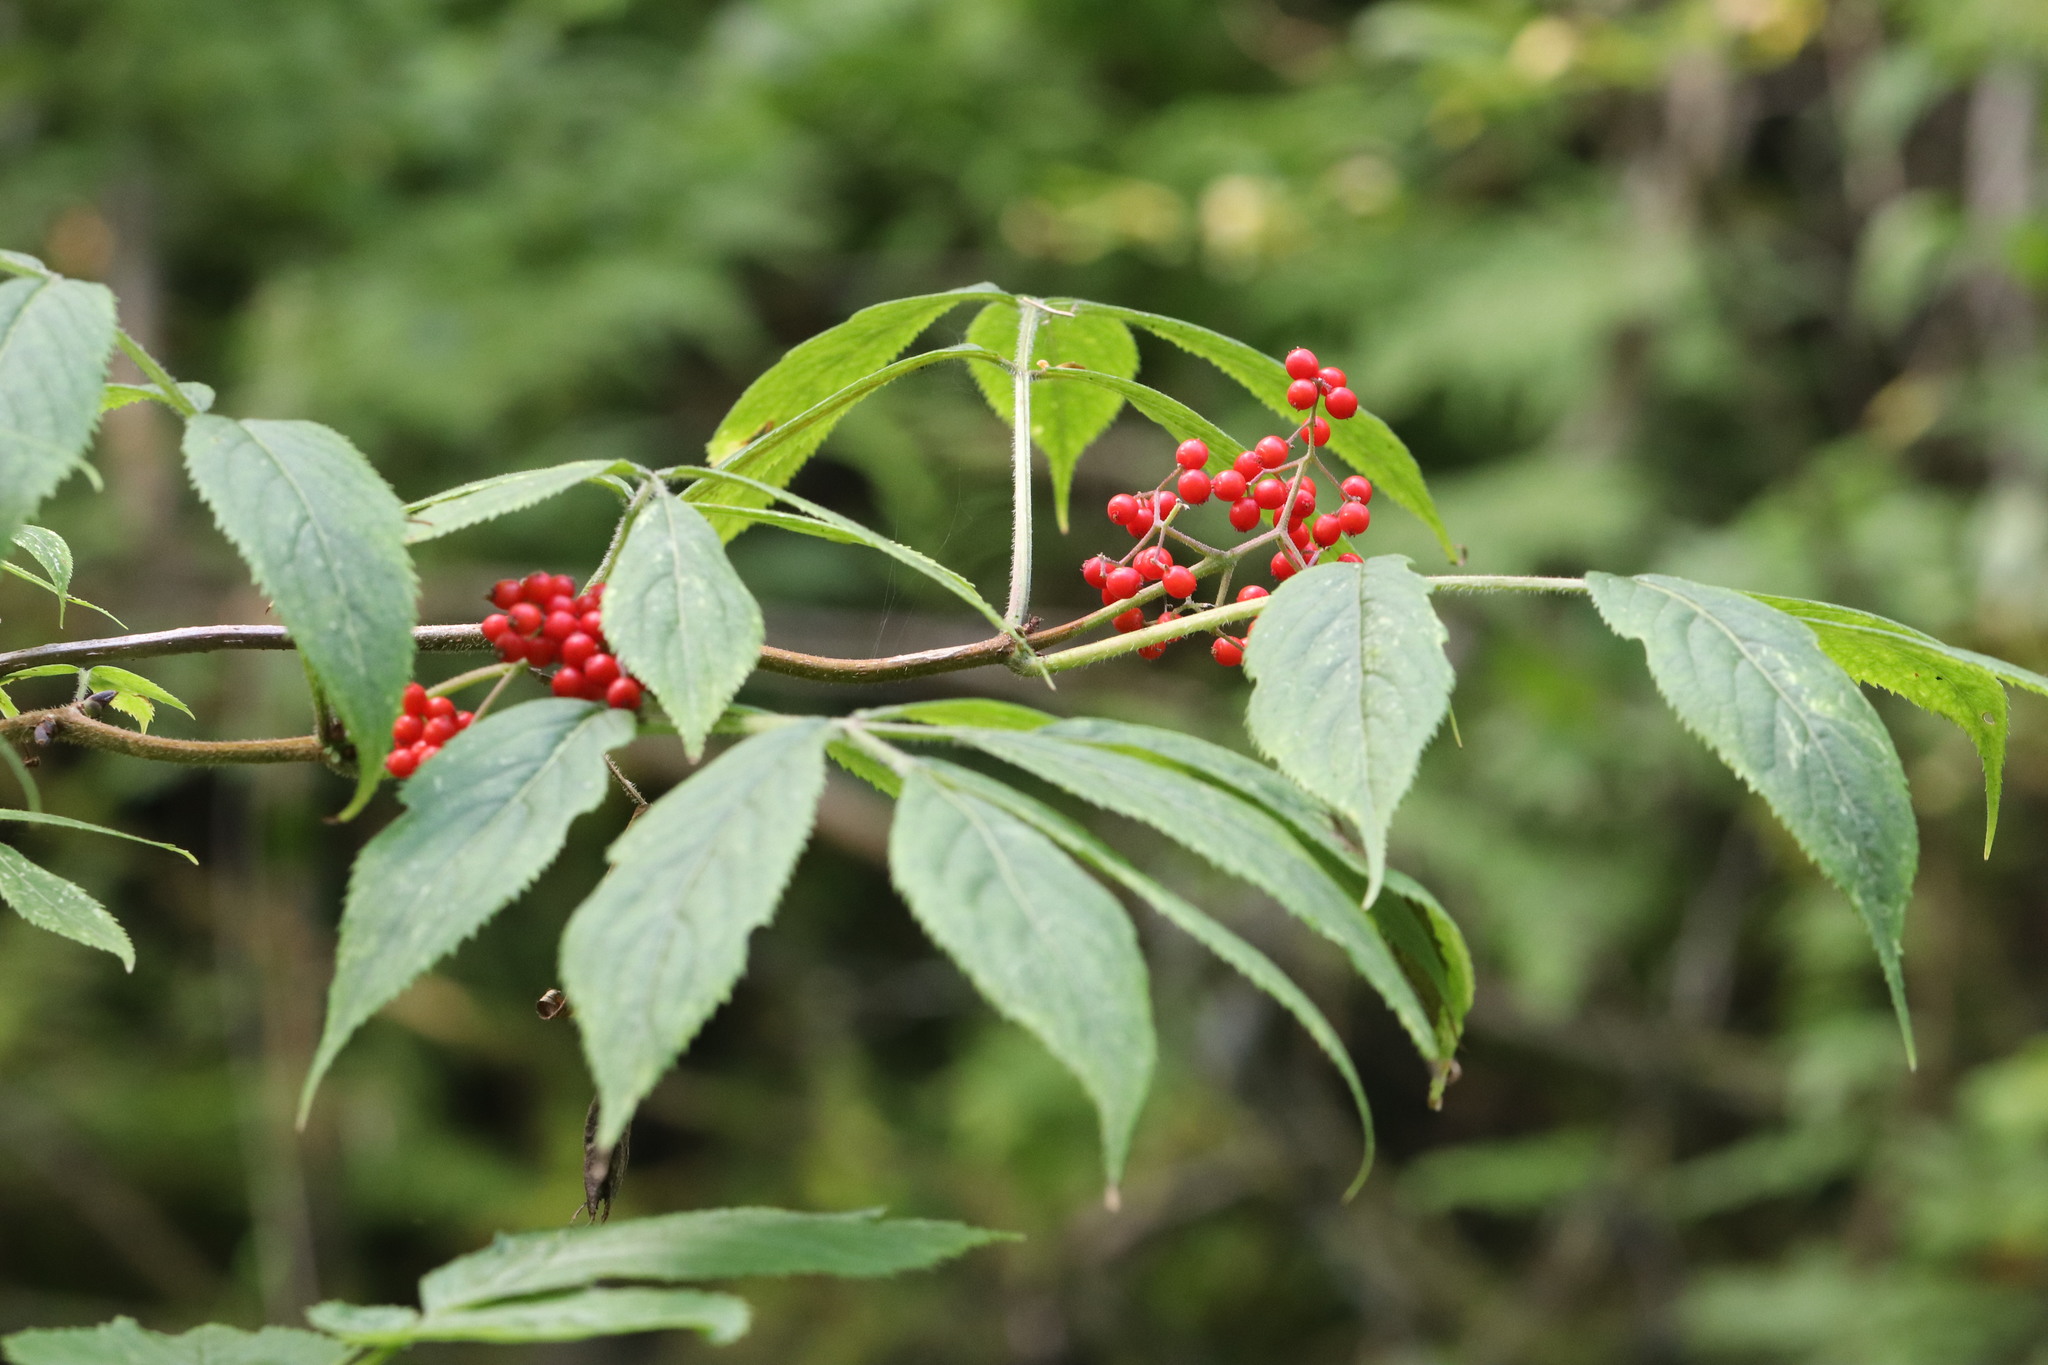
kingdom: Plantae
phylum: Tracheophyta
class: Magnoliopsida
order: Dipsacales
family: Viburnaceae
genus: Sambucus
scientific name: Sambucus sibirica
